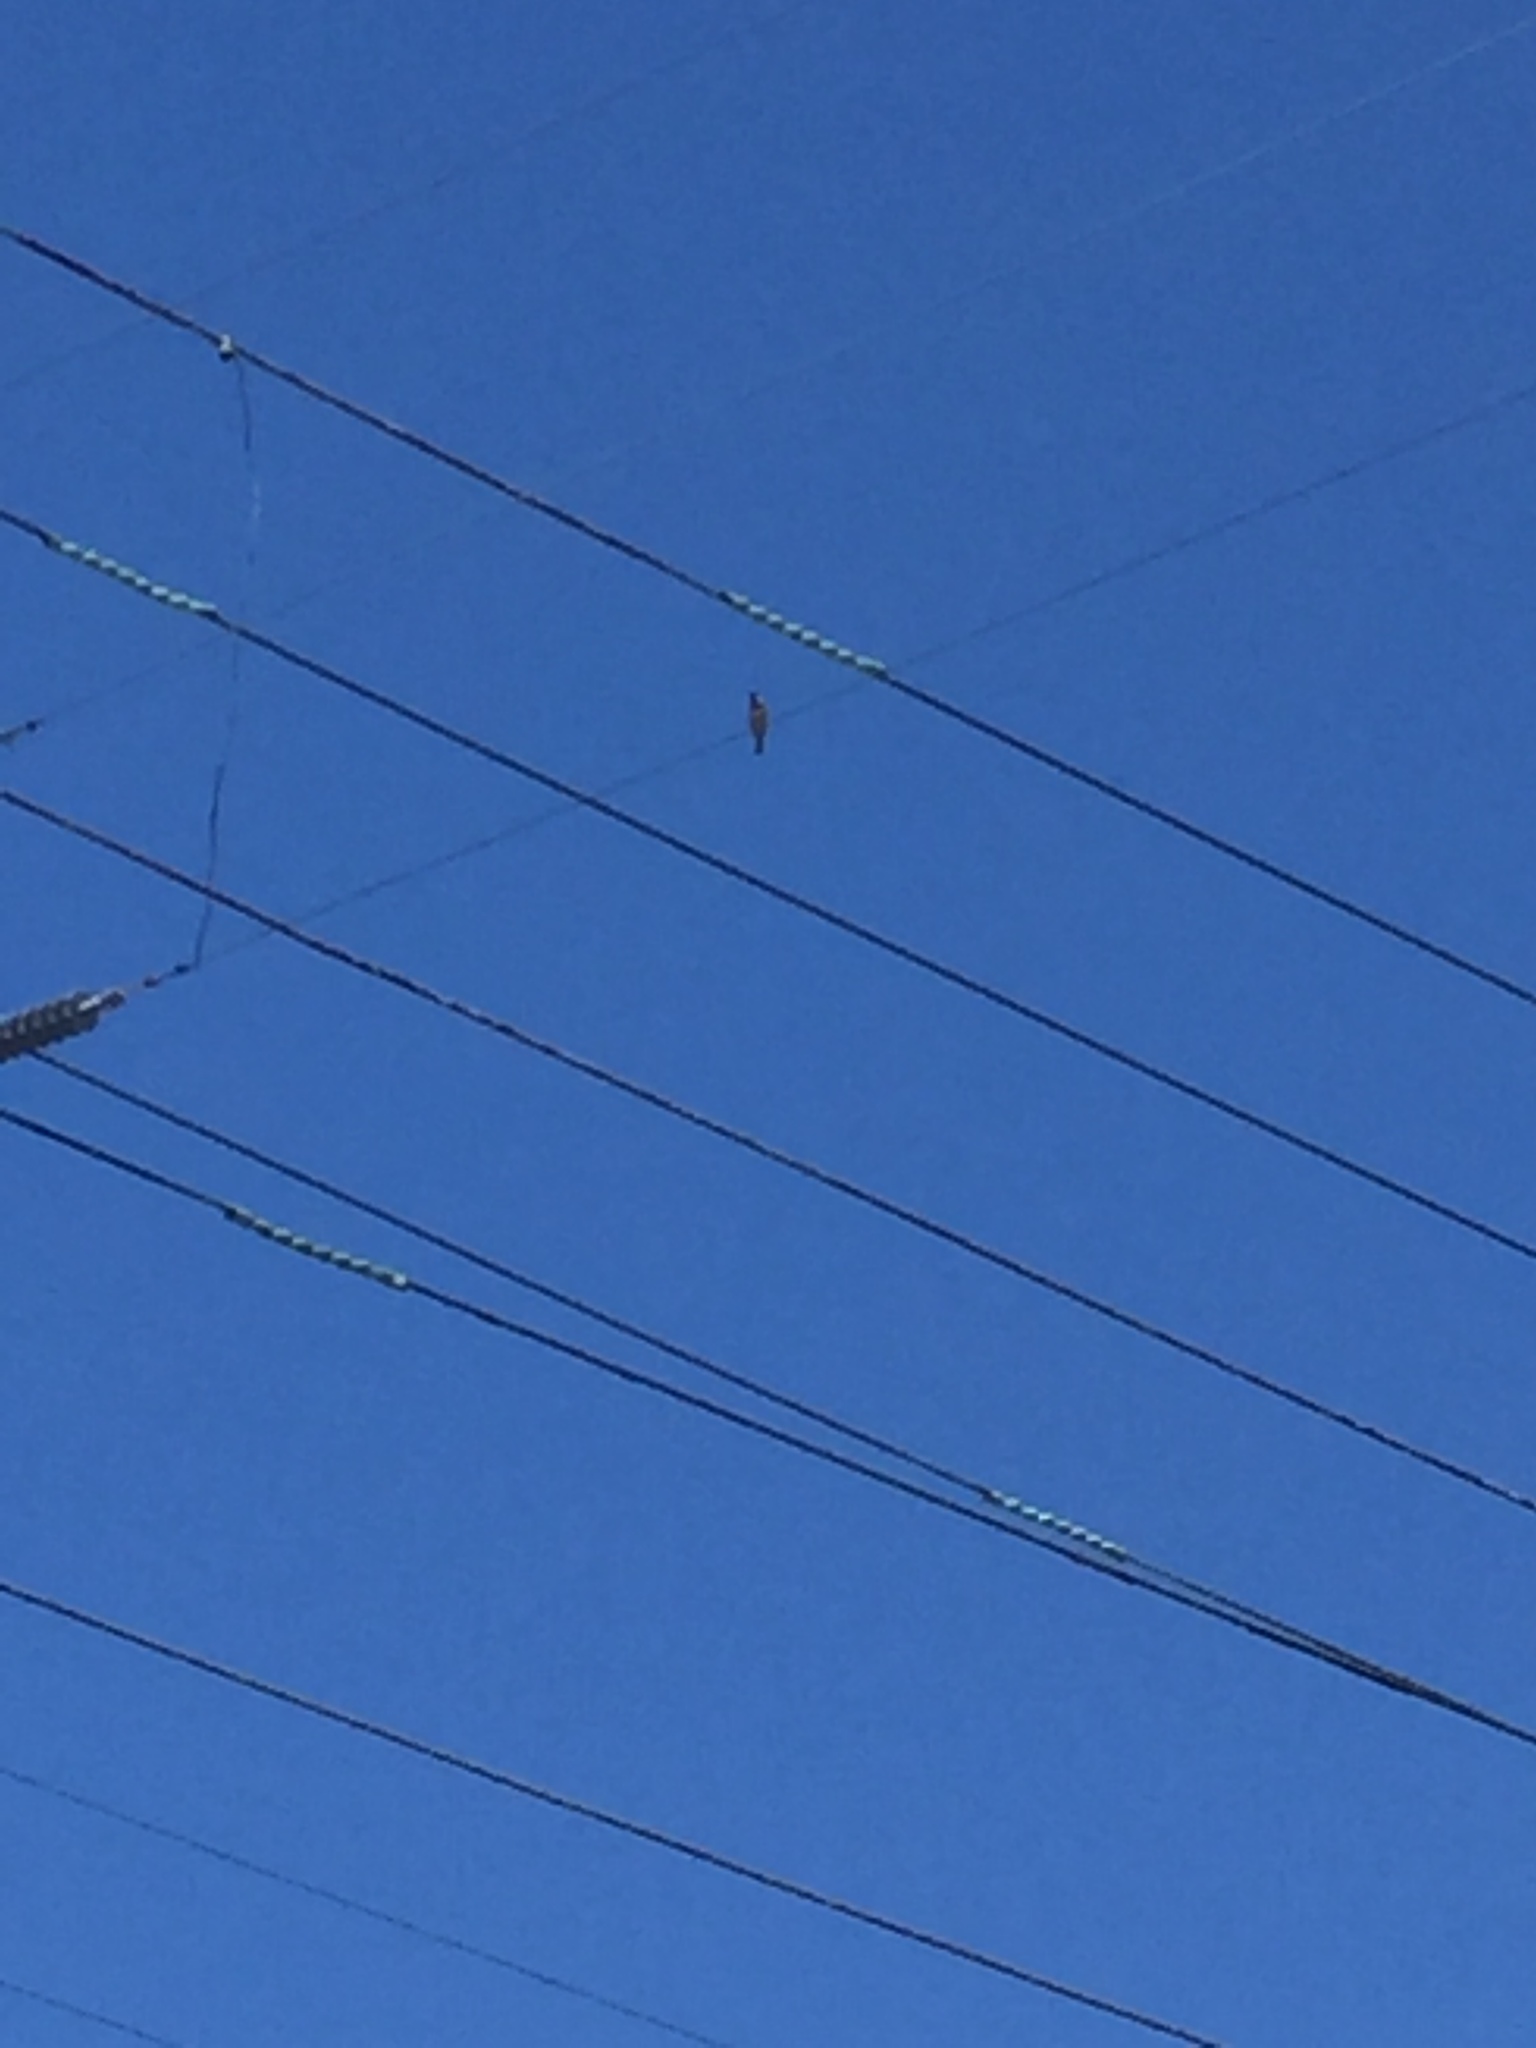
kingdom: Animalia
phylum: Chordata
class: Aves
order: Passeriformes
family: Mimidae
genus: Mimus
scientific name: Mimus polyglottos
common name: Northern mockingbird
